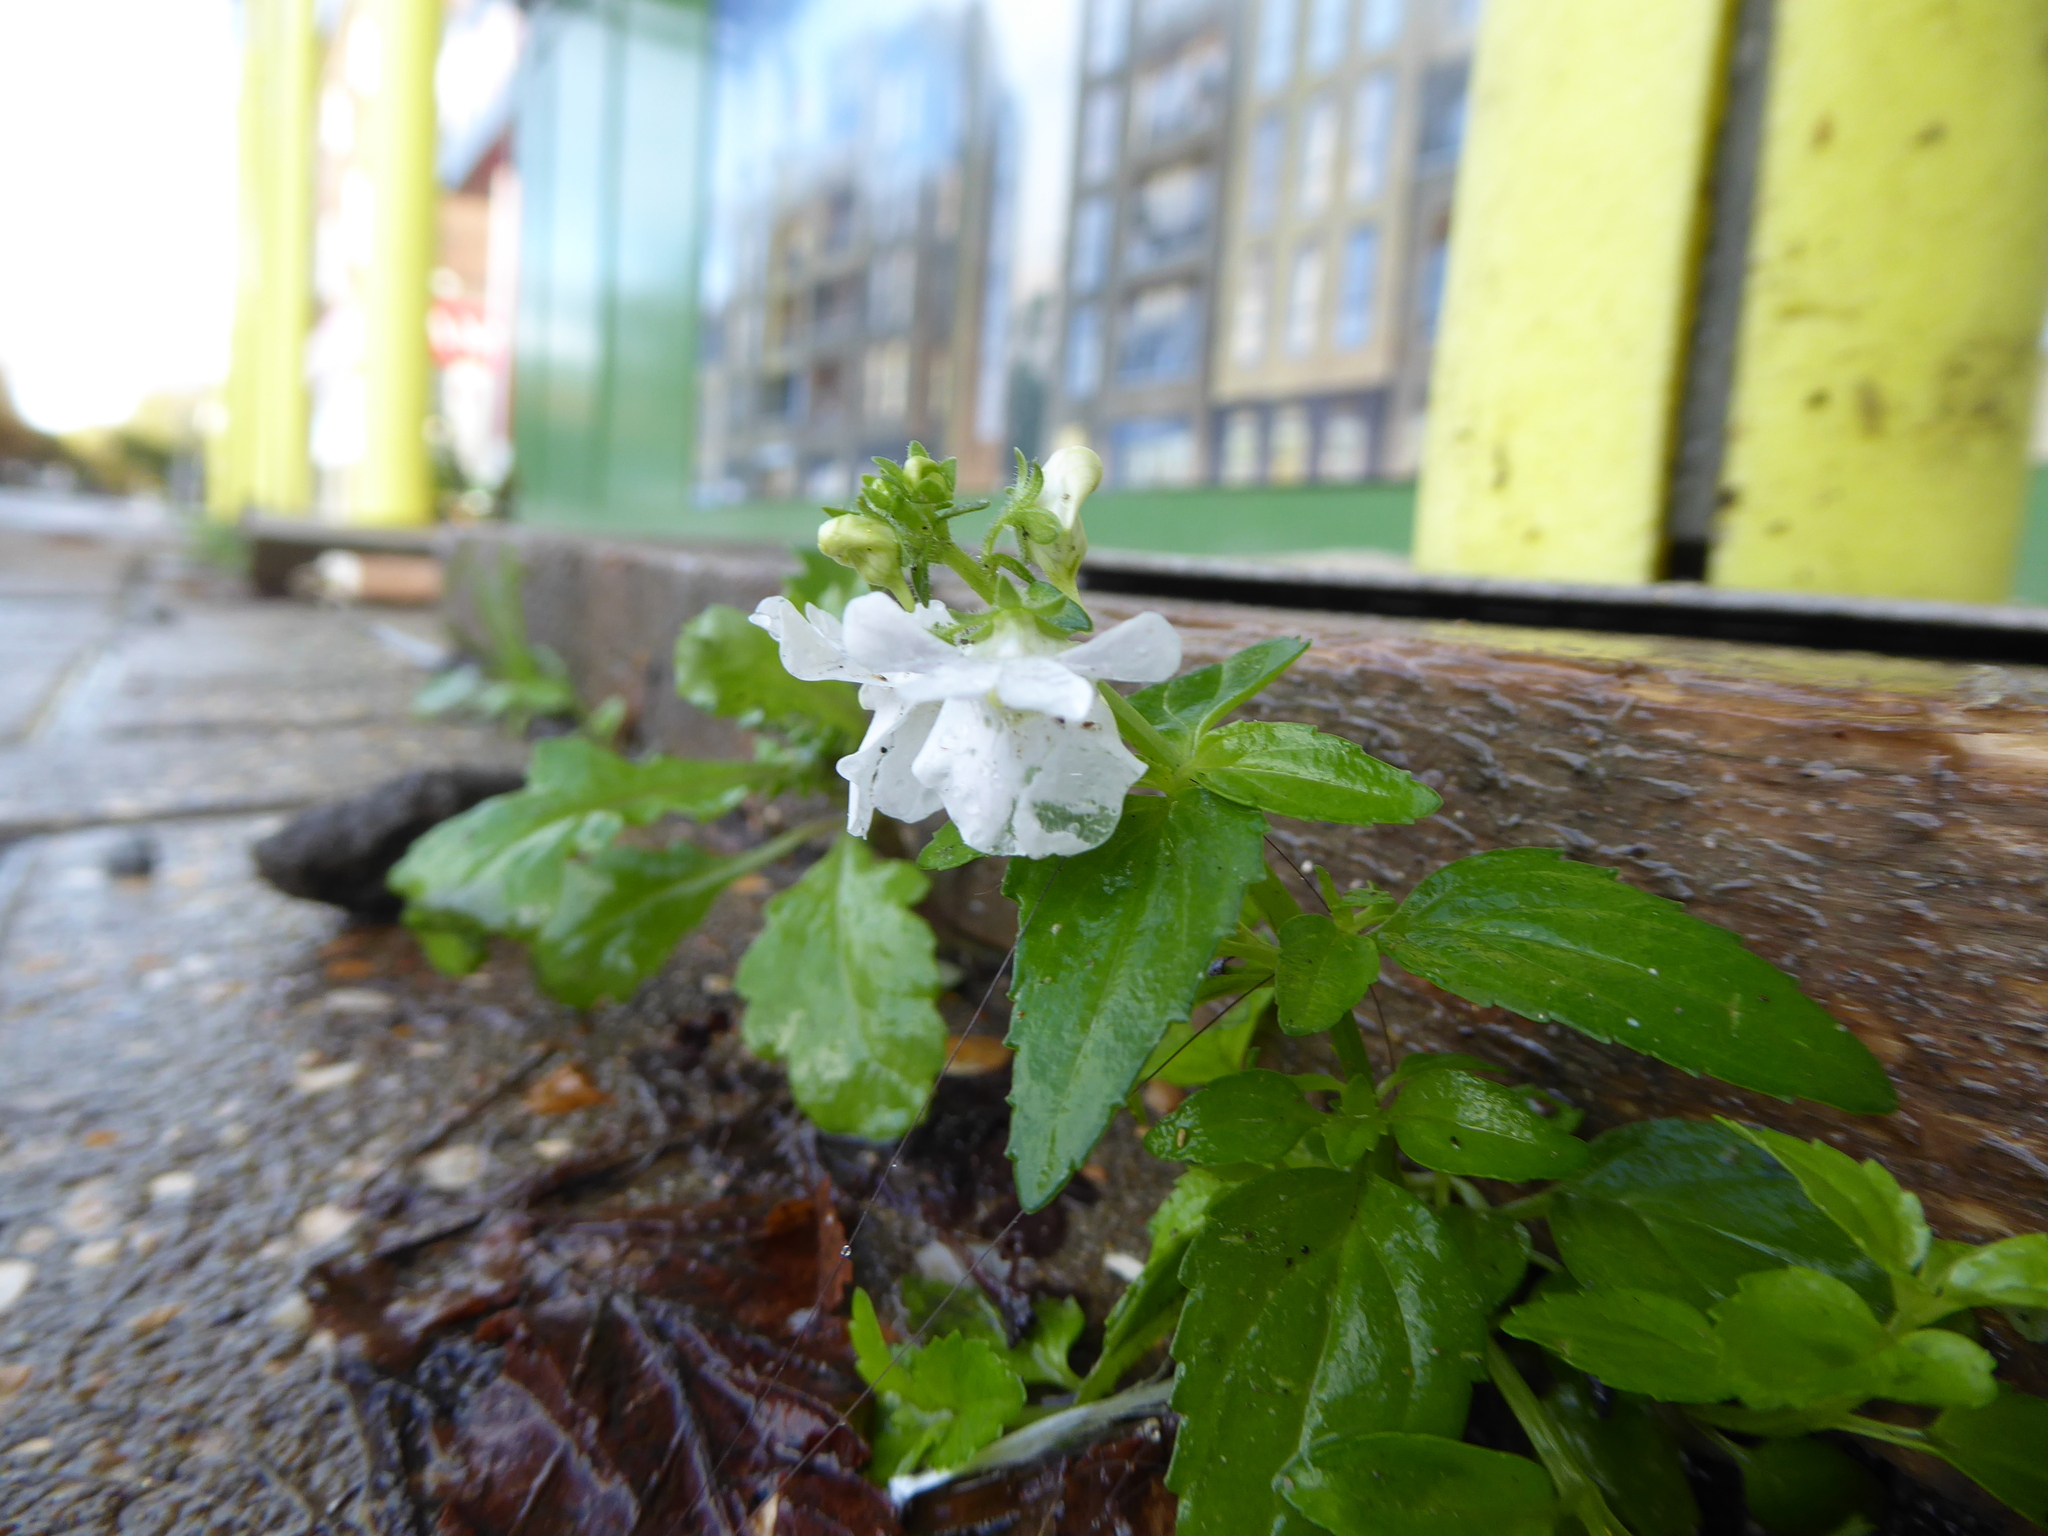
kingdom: Plantae
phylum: Tracheophyta
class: Magnoliopsida
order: Lamiales
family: Scrophulariaceae
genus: Nemesia
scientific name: Nemesia
